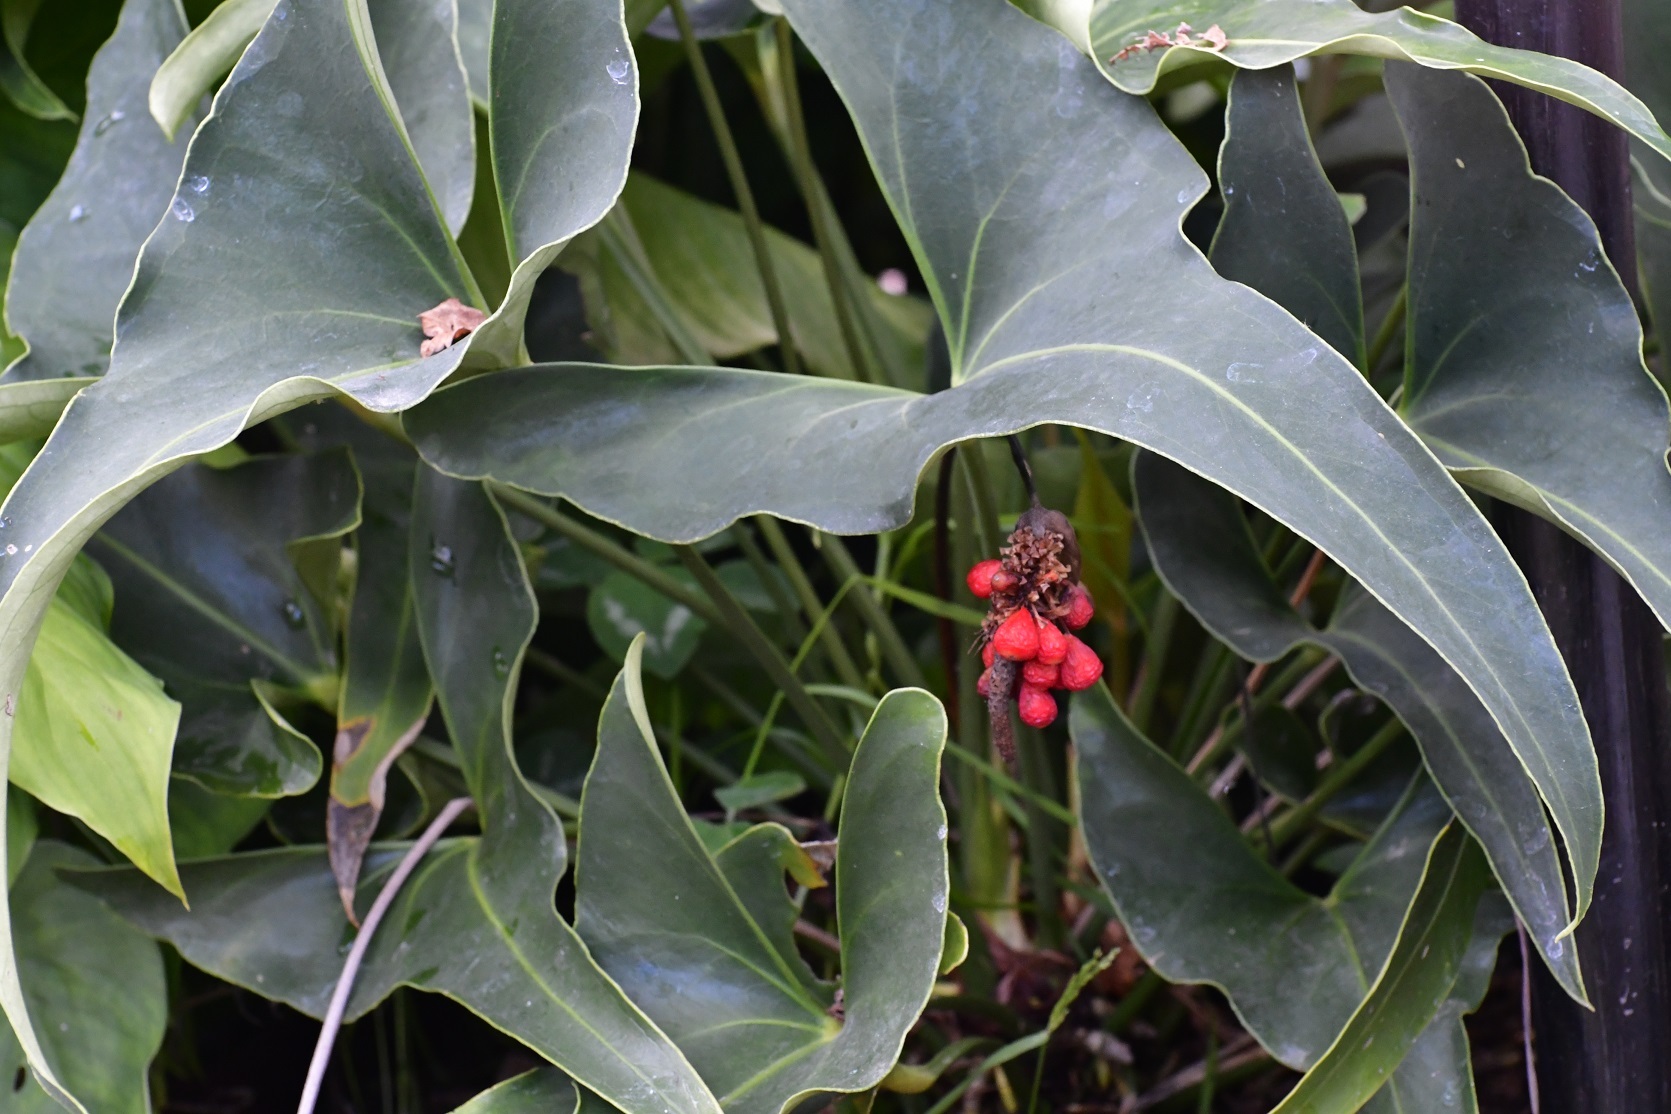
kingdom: Plantae
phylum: Tracheophyta
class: Liliopsida
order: Alismatales
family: Araceae
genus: Anthurium
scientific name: Anthurium cerrobaulense
